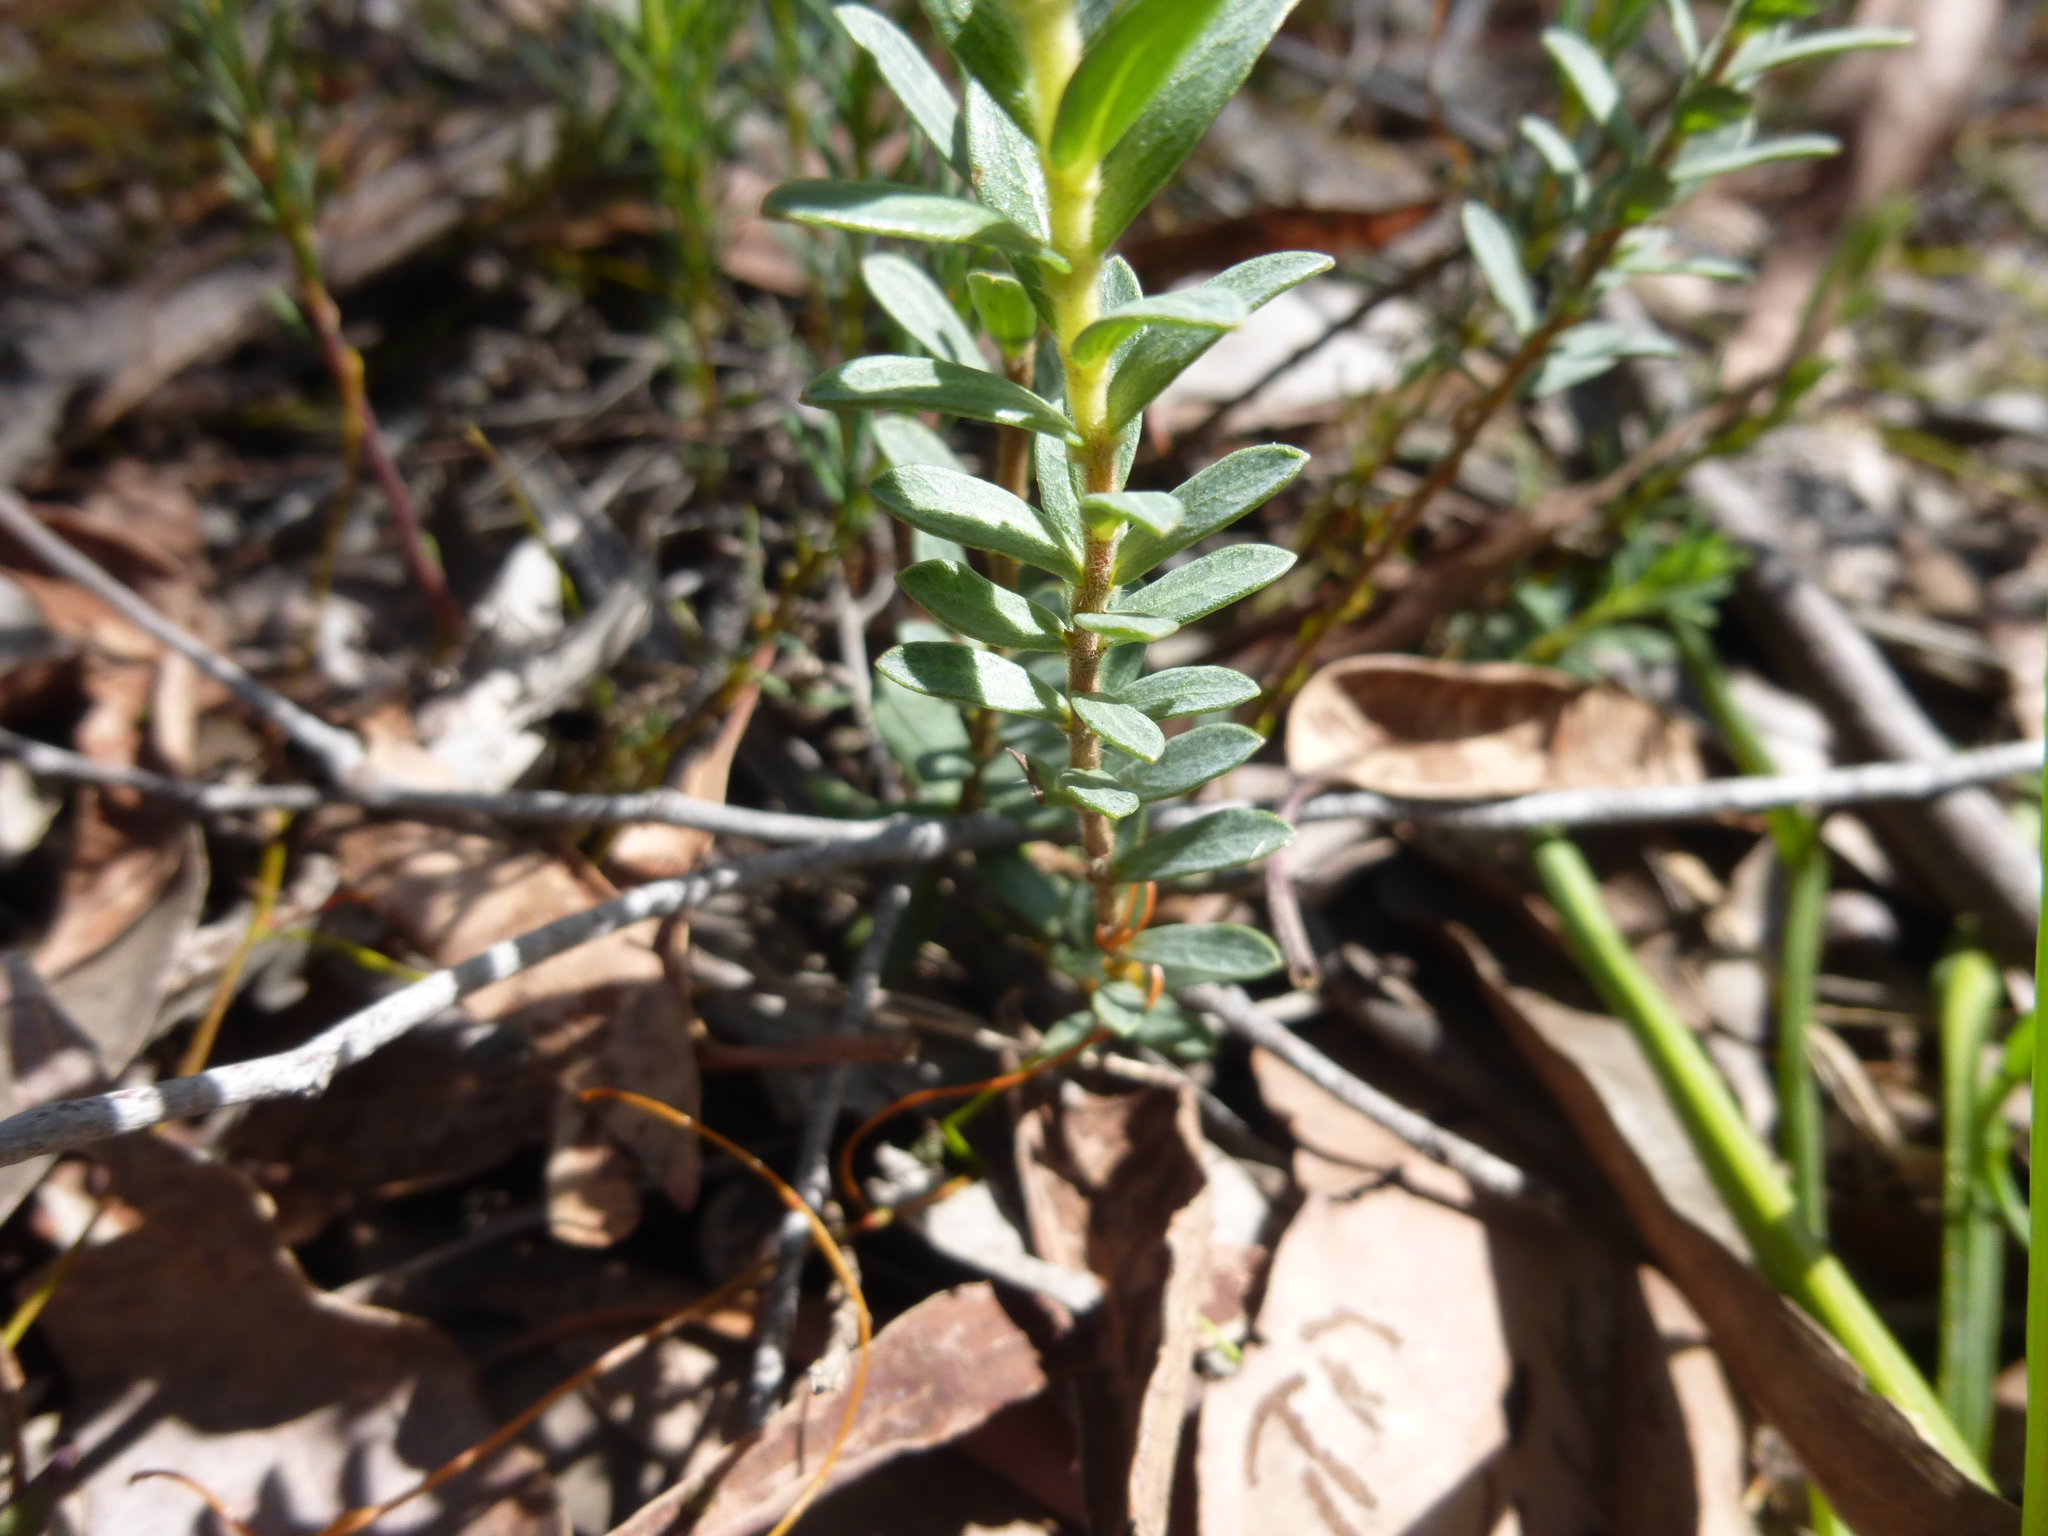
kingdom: Plantae
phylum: Tracheophyta
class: Magnoliopsida
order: Malvales
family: Thymelaeaceae
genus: Pimelea
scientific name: Pimelea humilis
